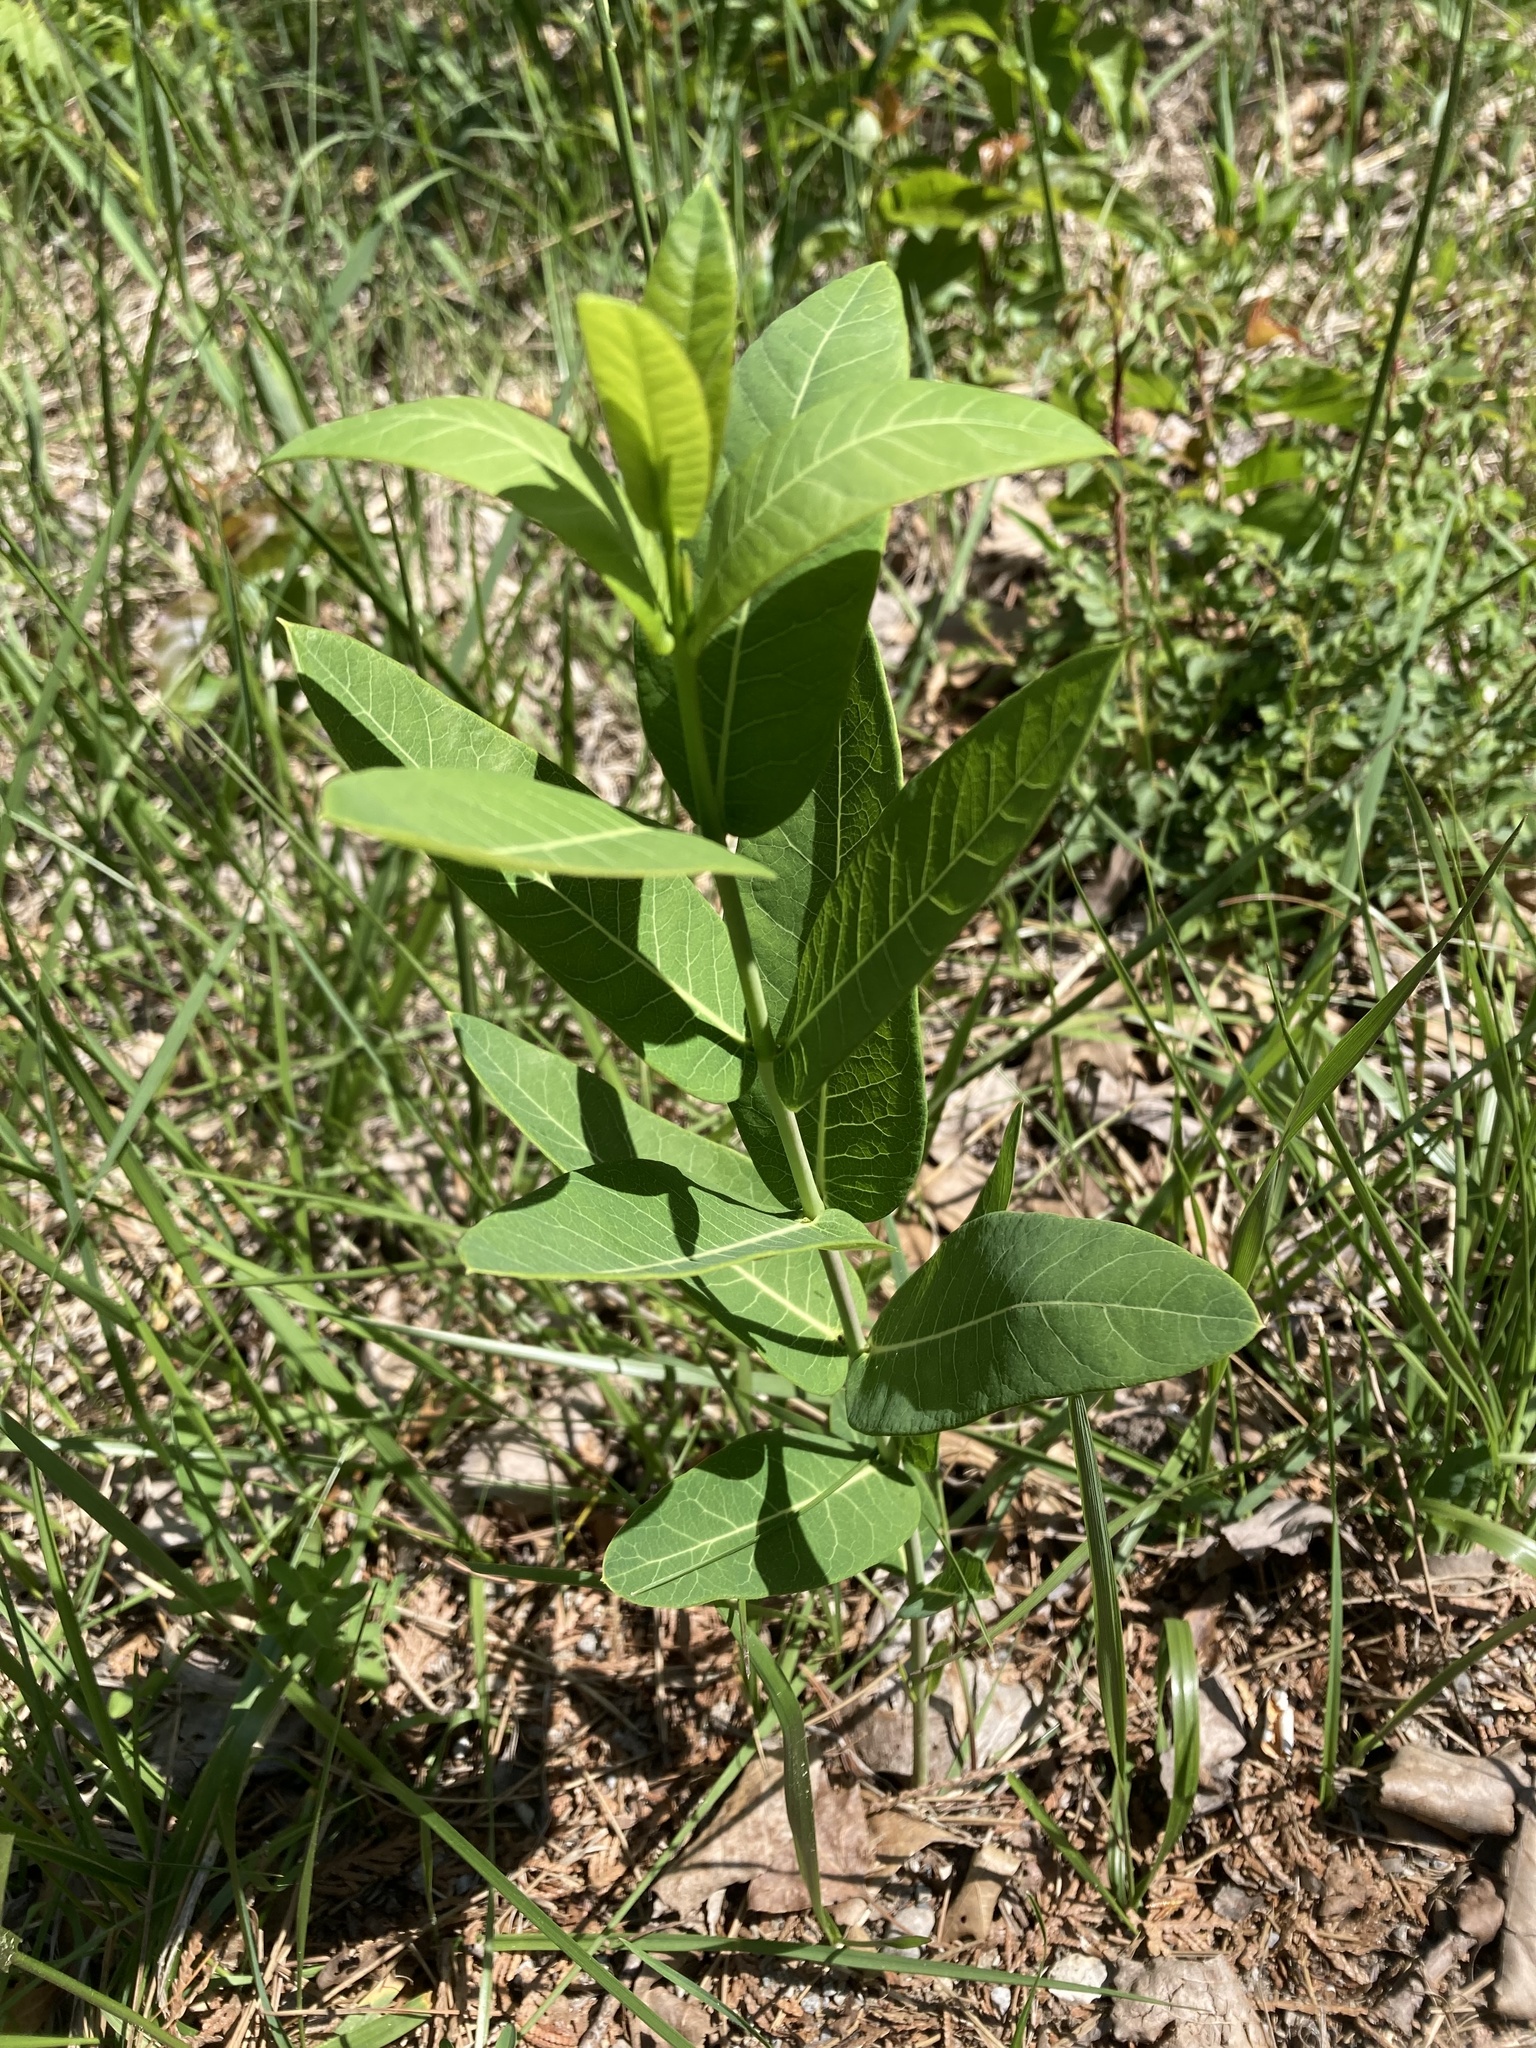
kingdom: Plantae
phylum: Tracheophyta
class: Magnoliopsida
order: Gentianales
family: Apocynaceae
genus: Apocynum
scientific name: Apocynum cannabinum
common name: Hemp dogbane
